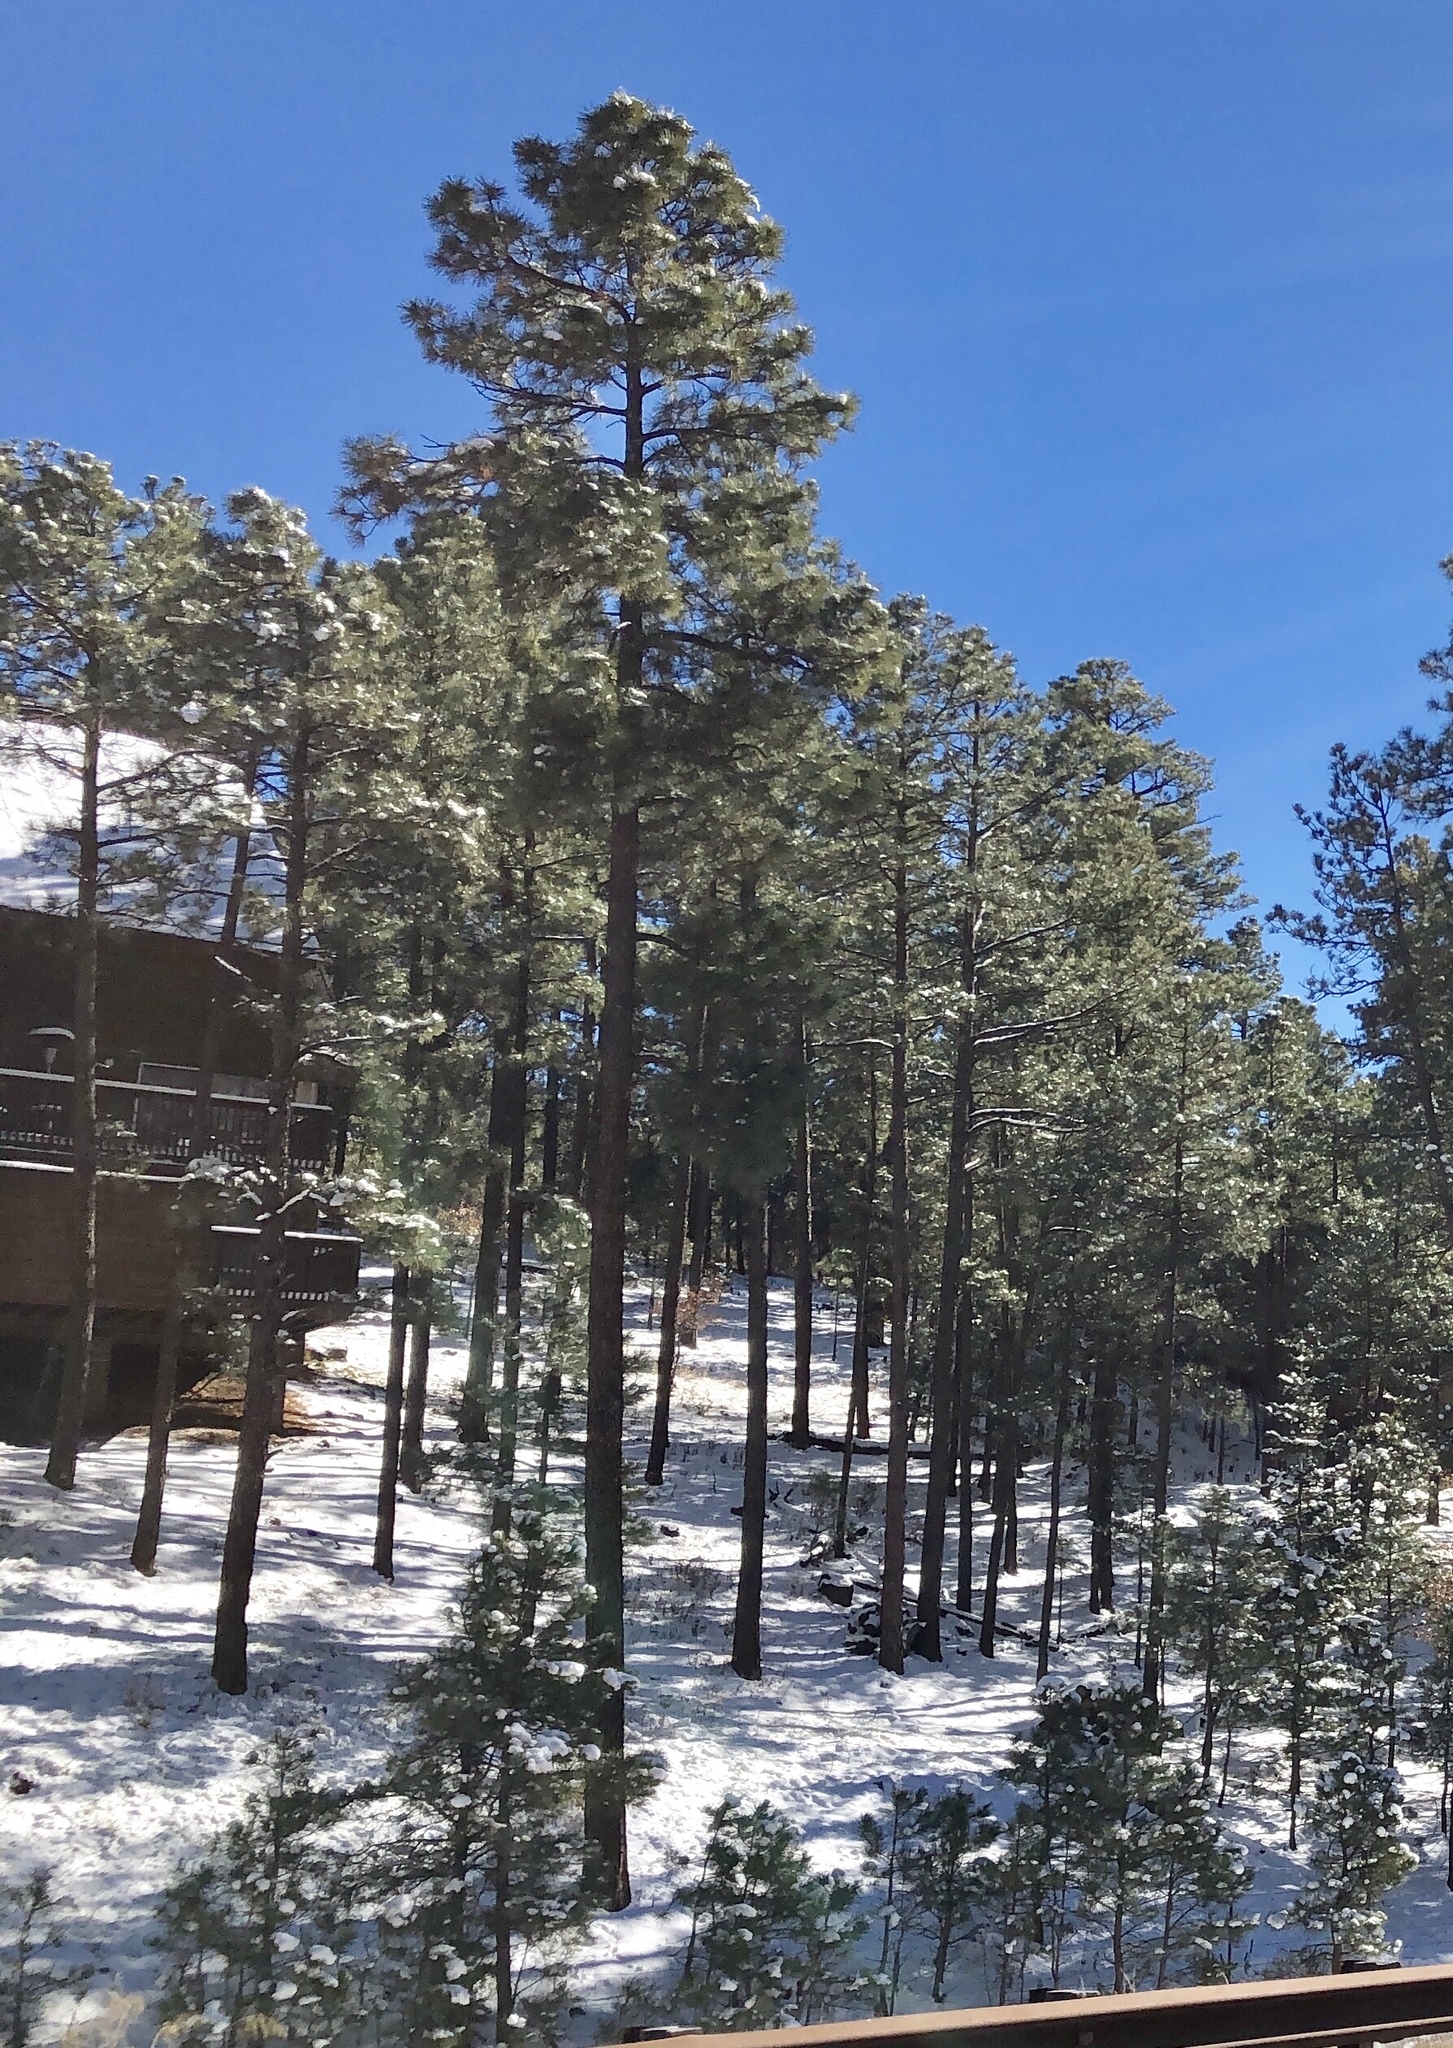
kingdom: Plantae
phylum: Tracheophyta
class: Pinopsida
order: Pinales
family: Pinaceae
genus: Pinus
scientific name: Pinus ponderosa
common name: Western yellow-pine
